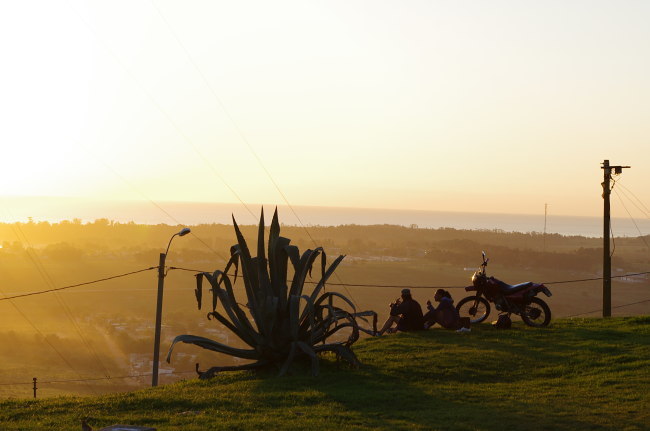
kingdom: Plantae
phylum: Tracheophyta
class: Liliopsida
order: Asparagales
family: Asparagaceae
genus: Agave
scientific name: Agave americana
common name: Centuryplant
